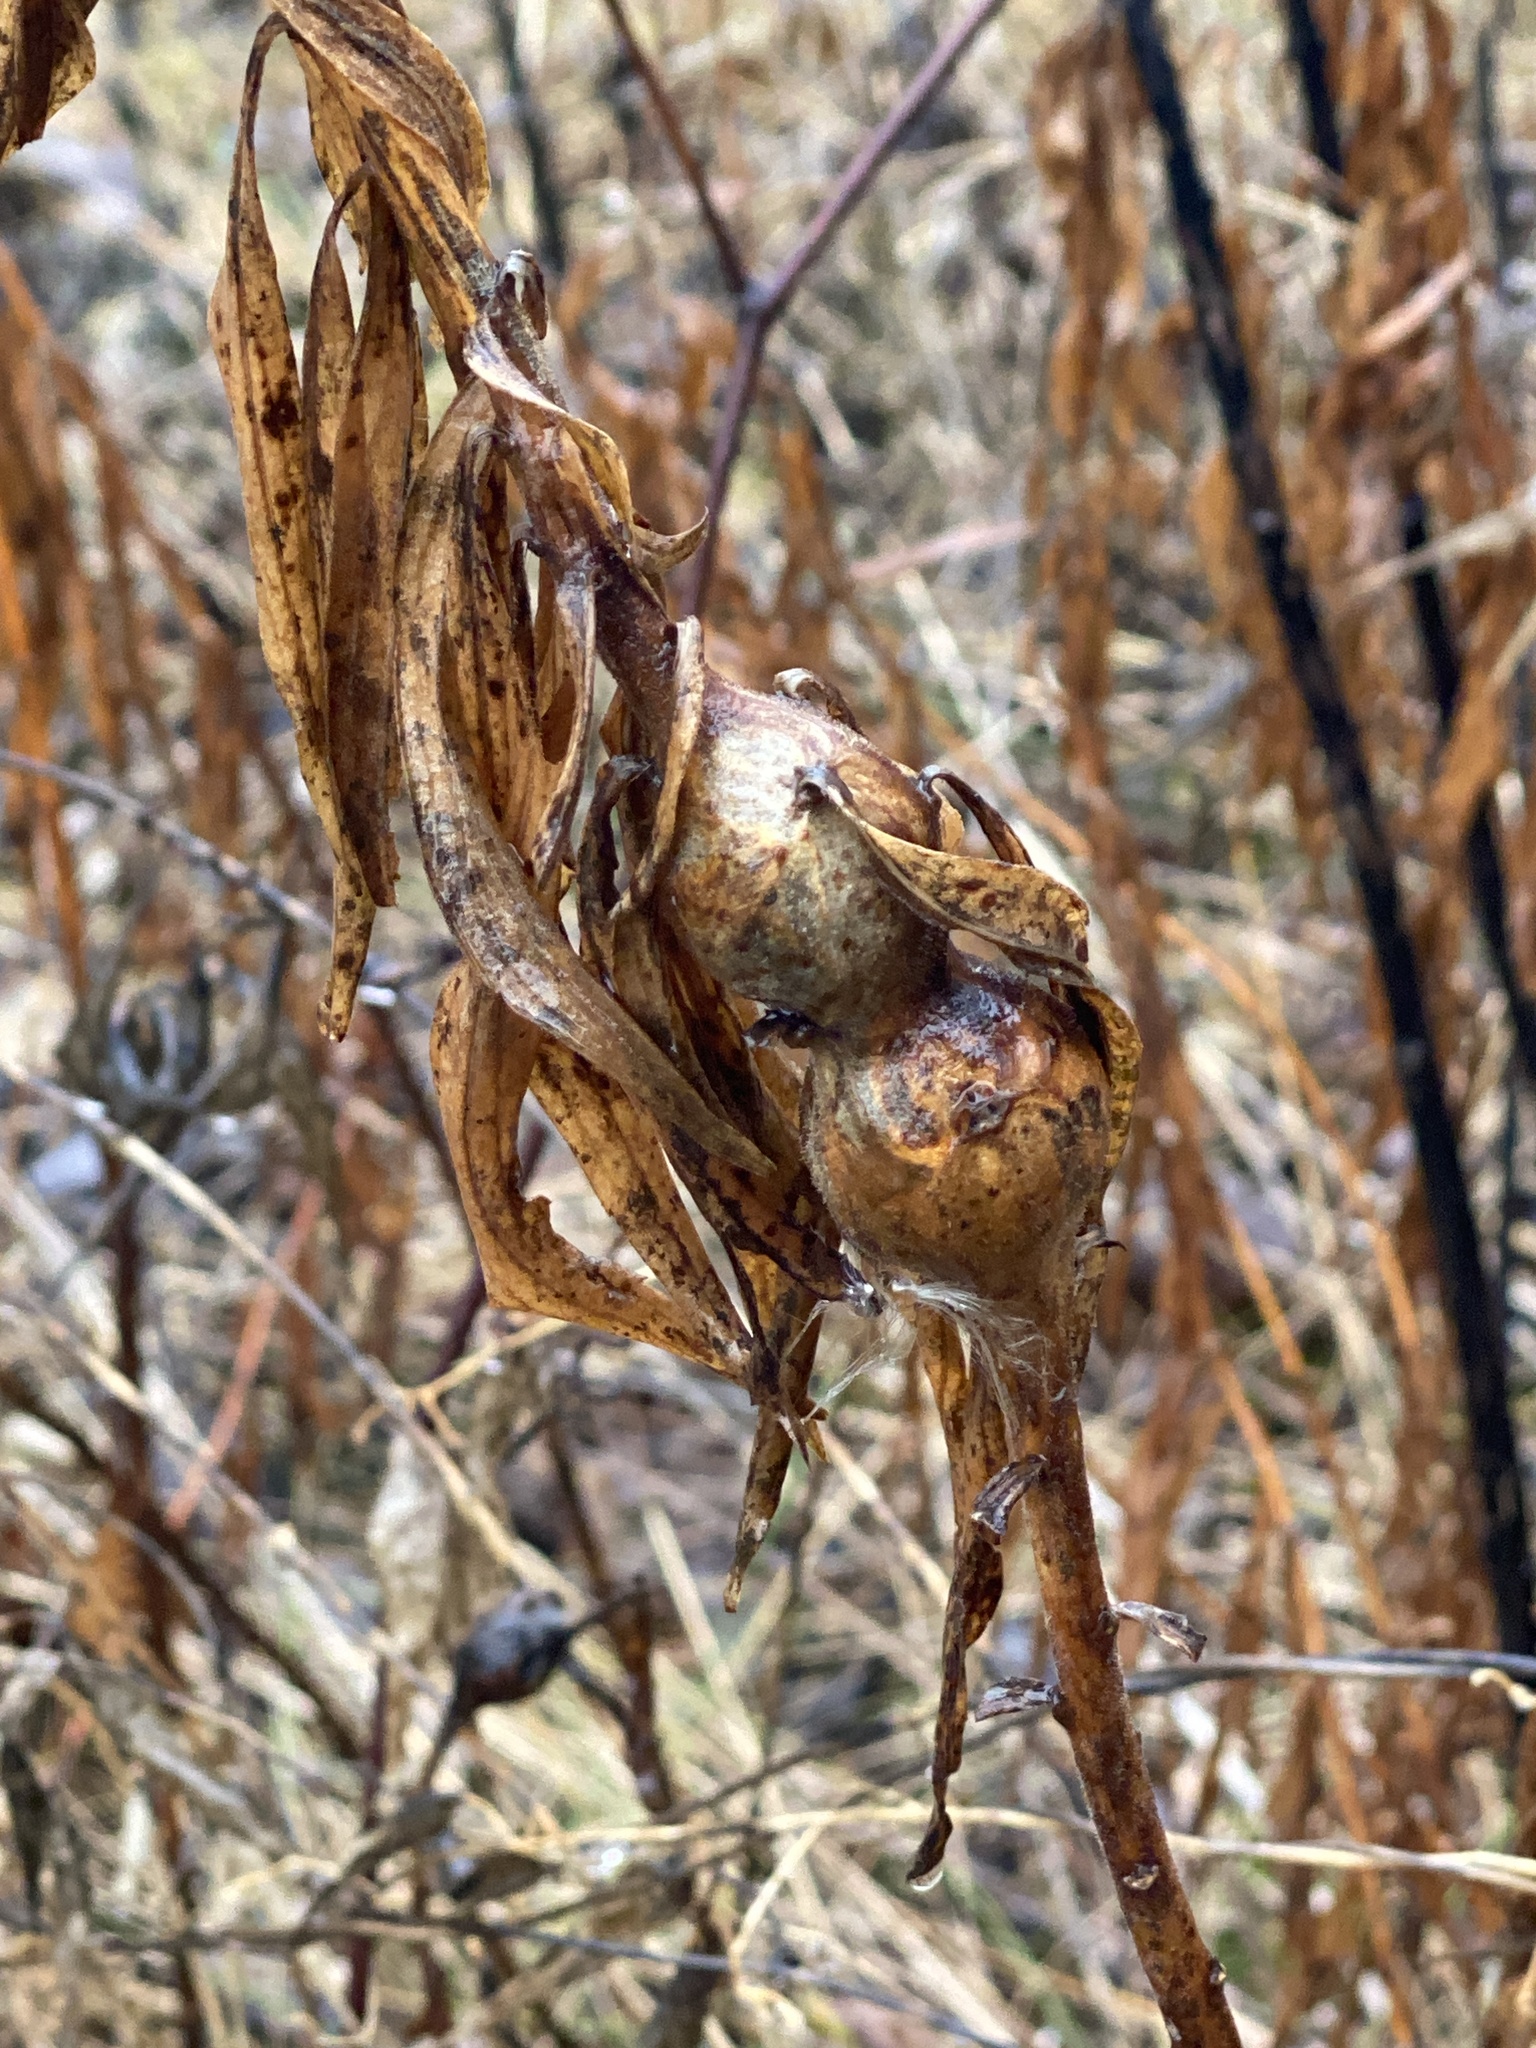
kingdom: Animalia
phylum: Arthropoda
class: Insecta
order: Diptera
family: Tephritidae
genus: Eurosta
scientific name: Eurosta solidaginis
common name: Goldenrod gall fly
